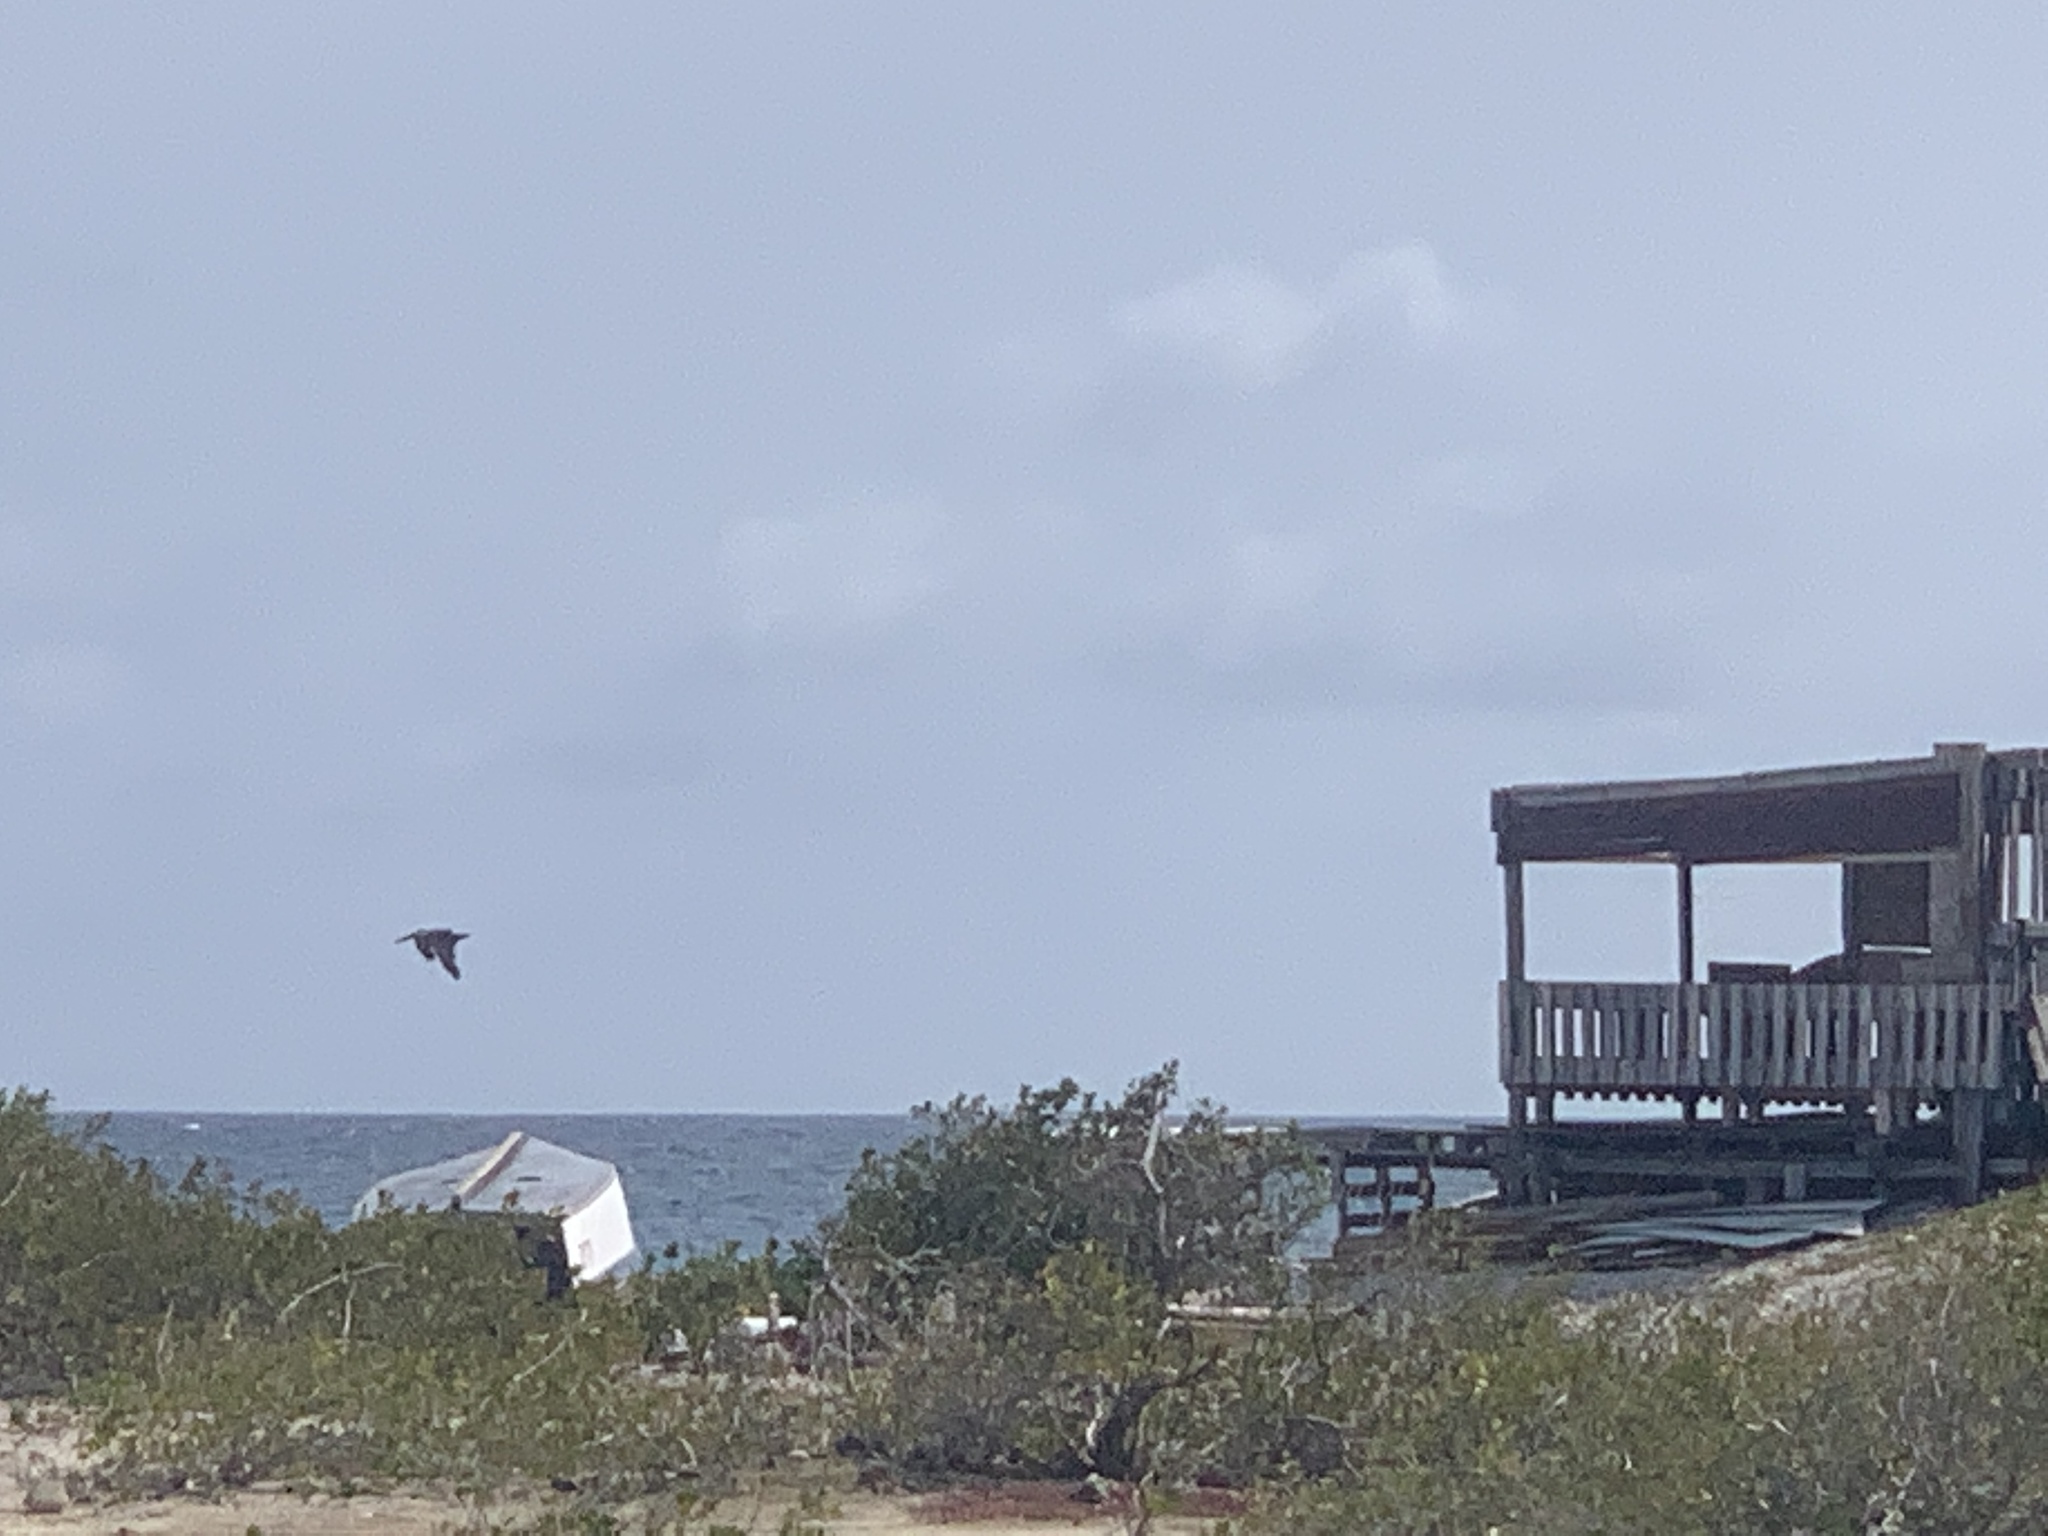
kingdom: Animalia
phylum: Chordata
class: Aves
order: Pelecaniformes
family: Pelecanidae
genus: Pelecanus
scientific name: Pelecanus occidentalis
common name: Brown pelican
